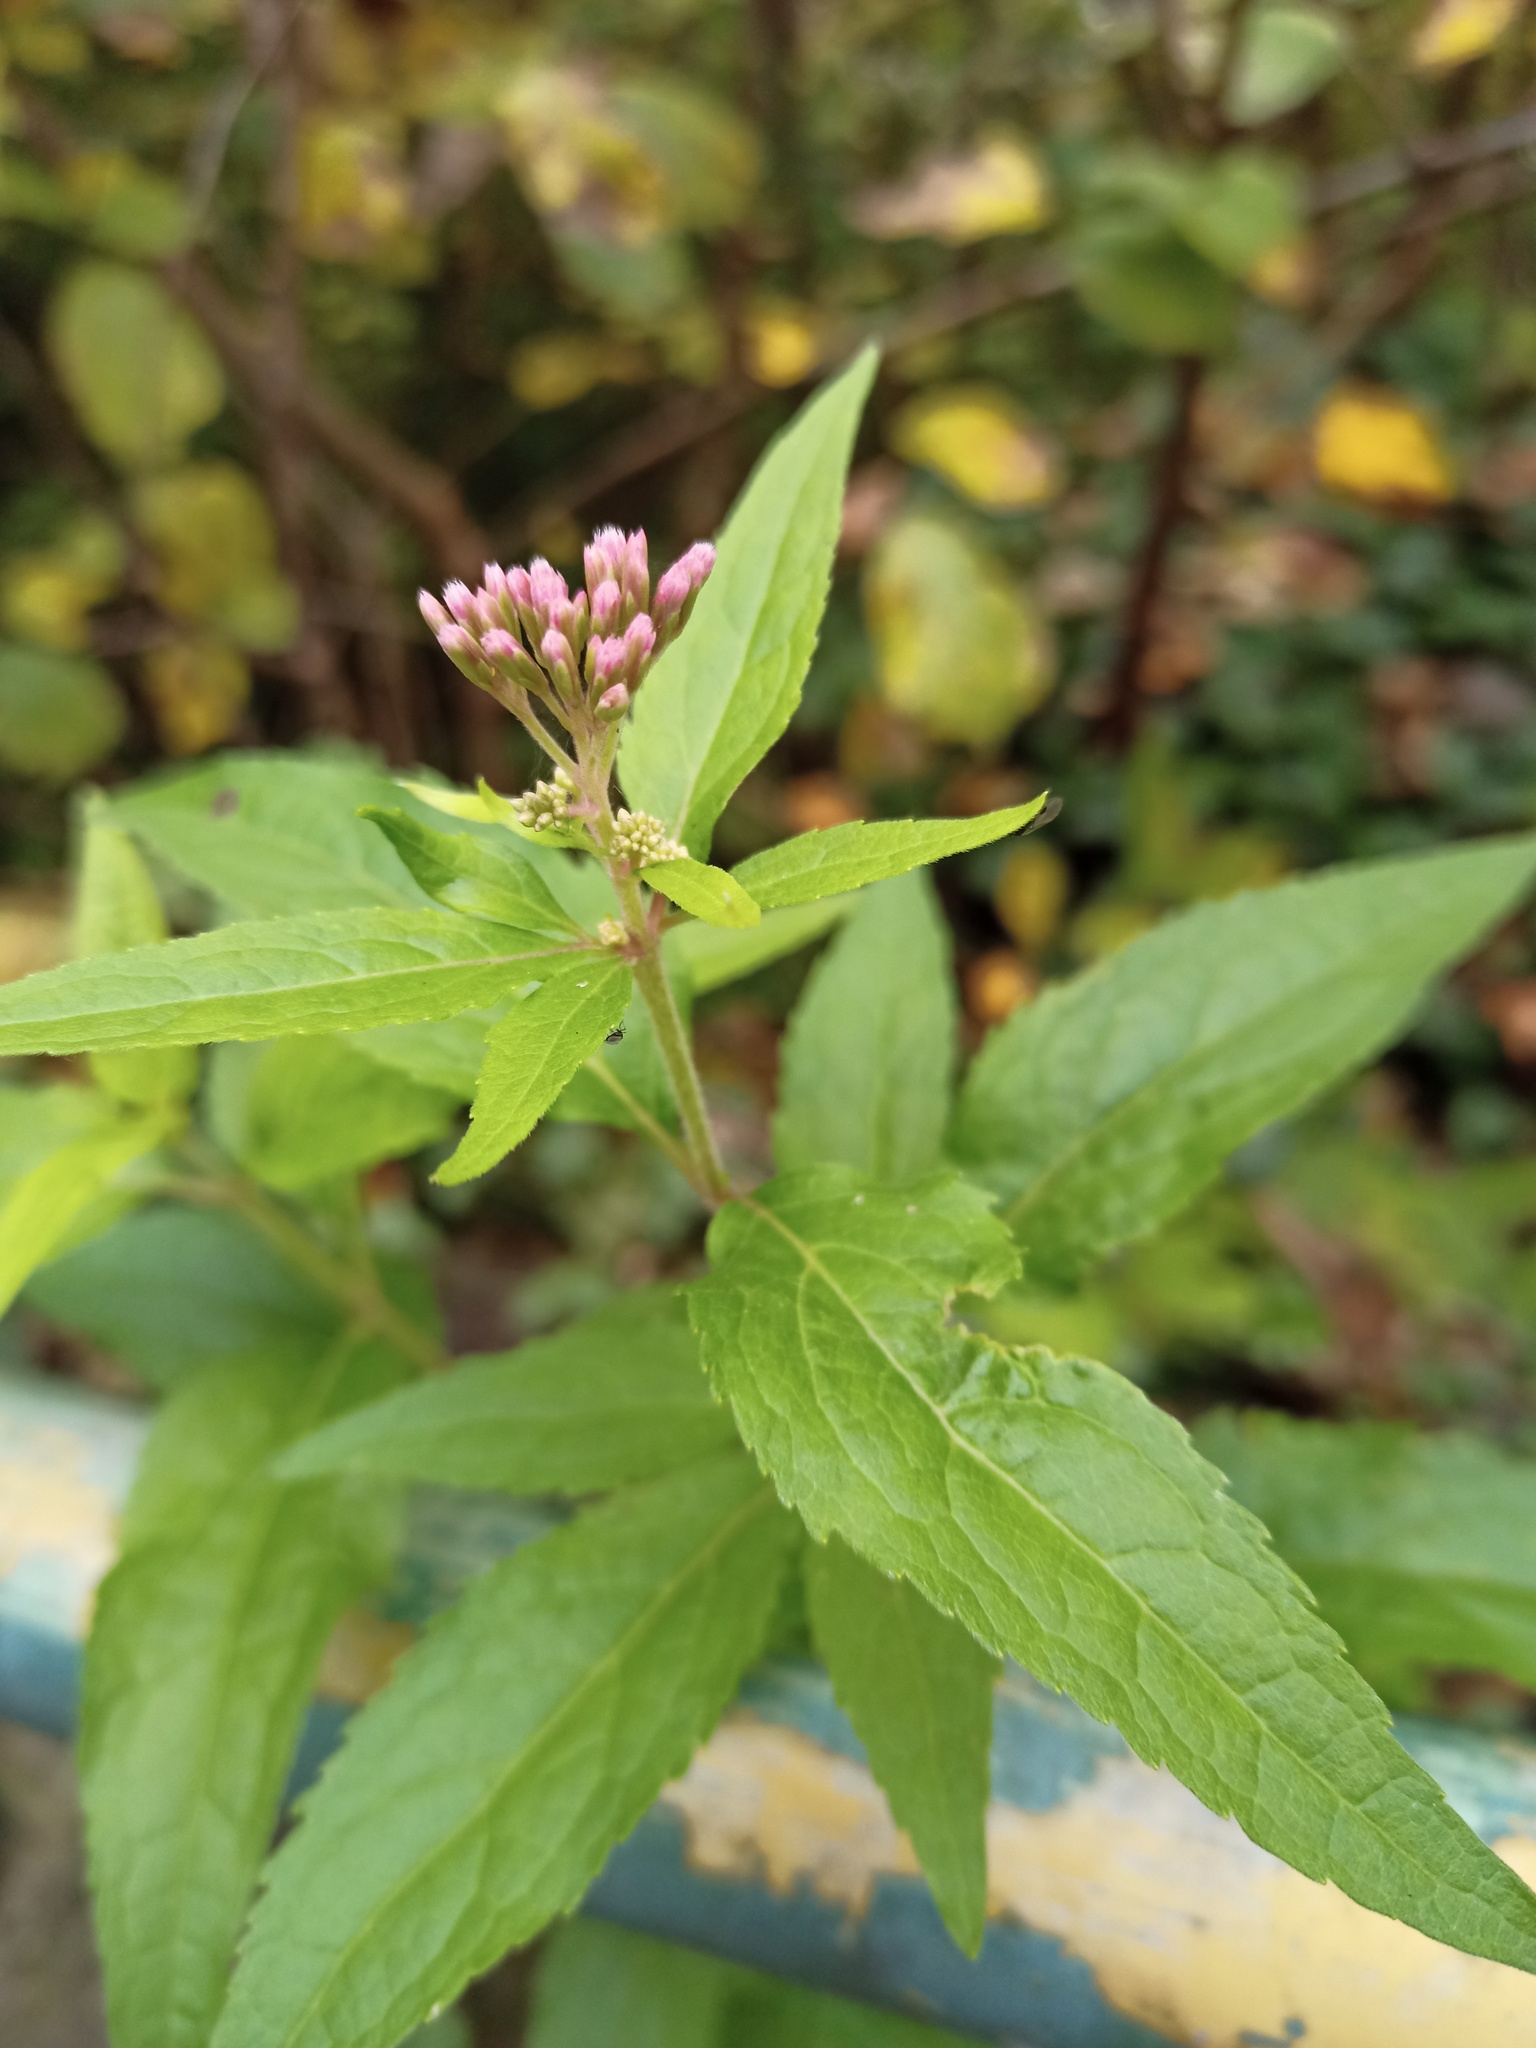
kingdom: Plantae
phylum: Tracheophyta
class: Magnoliopsida
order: Asterales
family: Asteraceae
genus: Eupatorium
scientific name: Eupatorium cannabinum
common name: Hemp-agrimony
